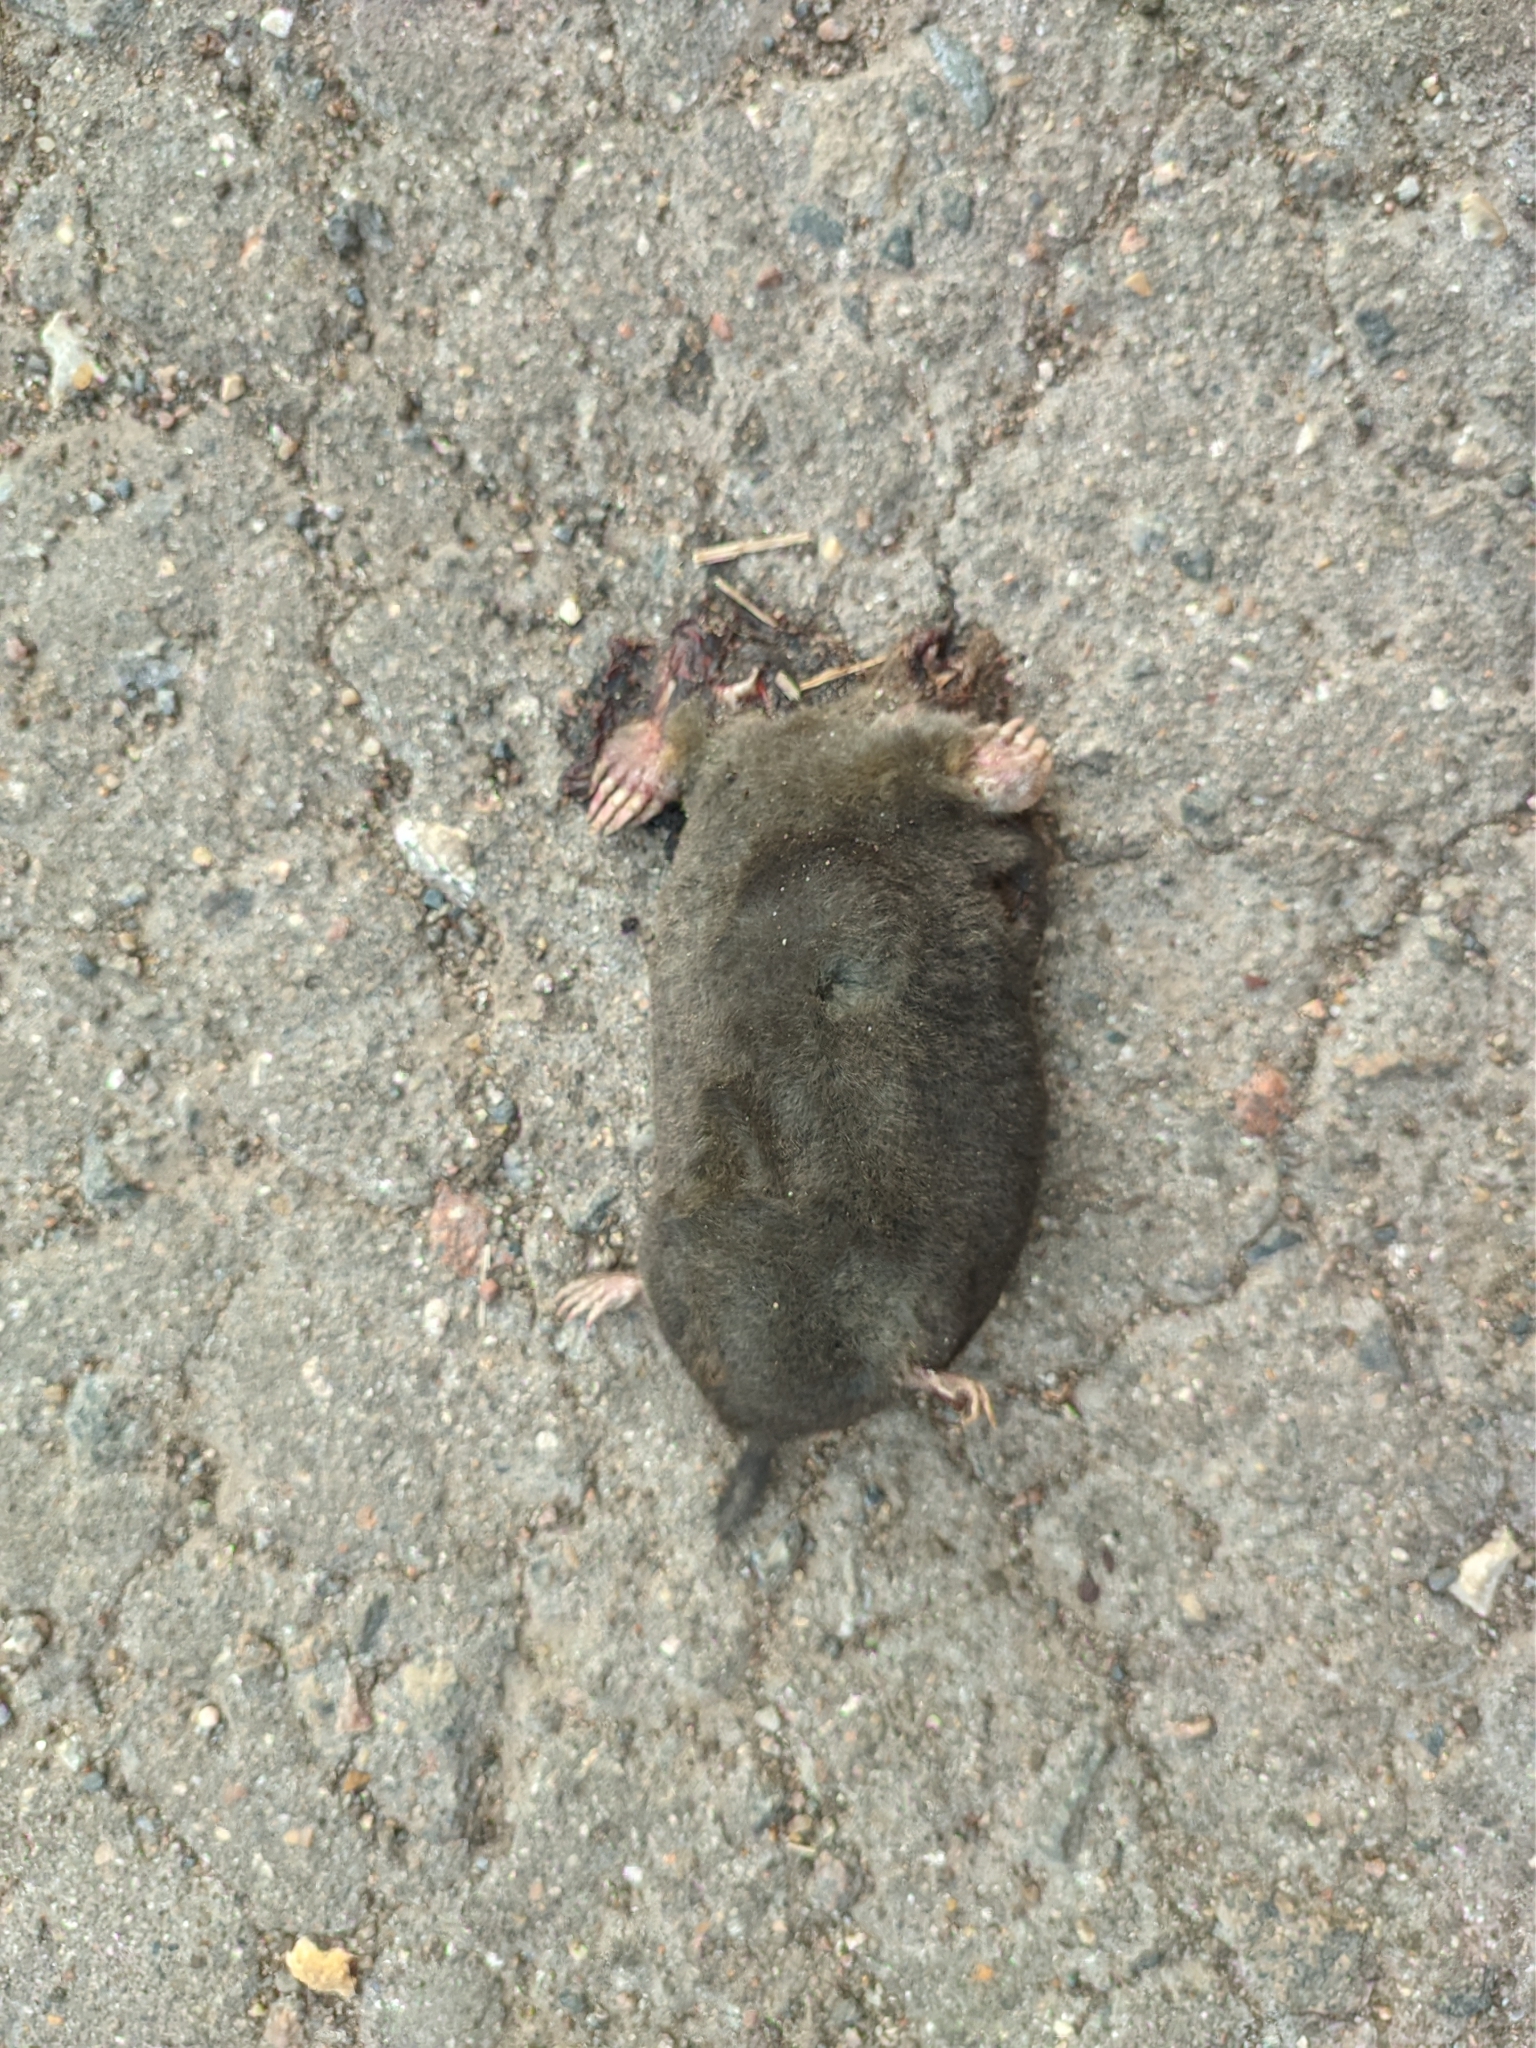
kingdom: Animalia
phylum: Chordata
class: Mammalia
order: Soricomorpha
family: Talpidae
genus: Talpa
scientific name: Talpa europaea
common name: European mole
